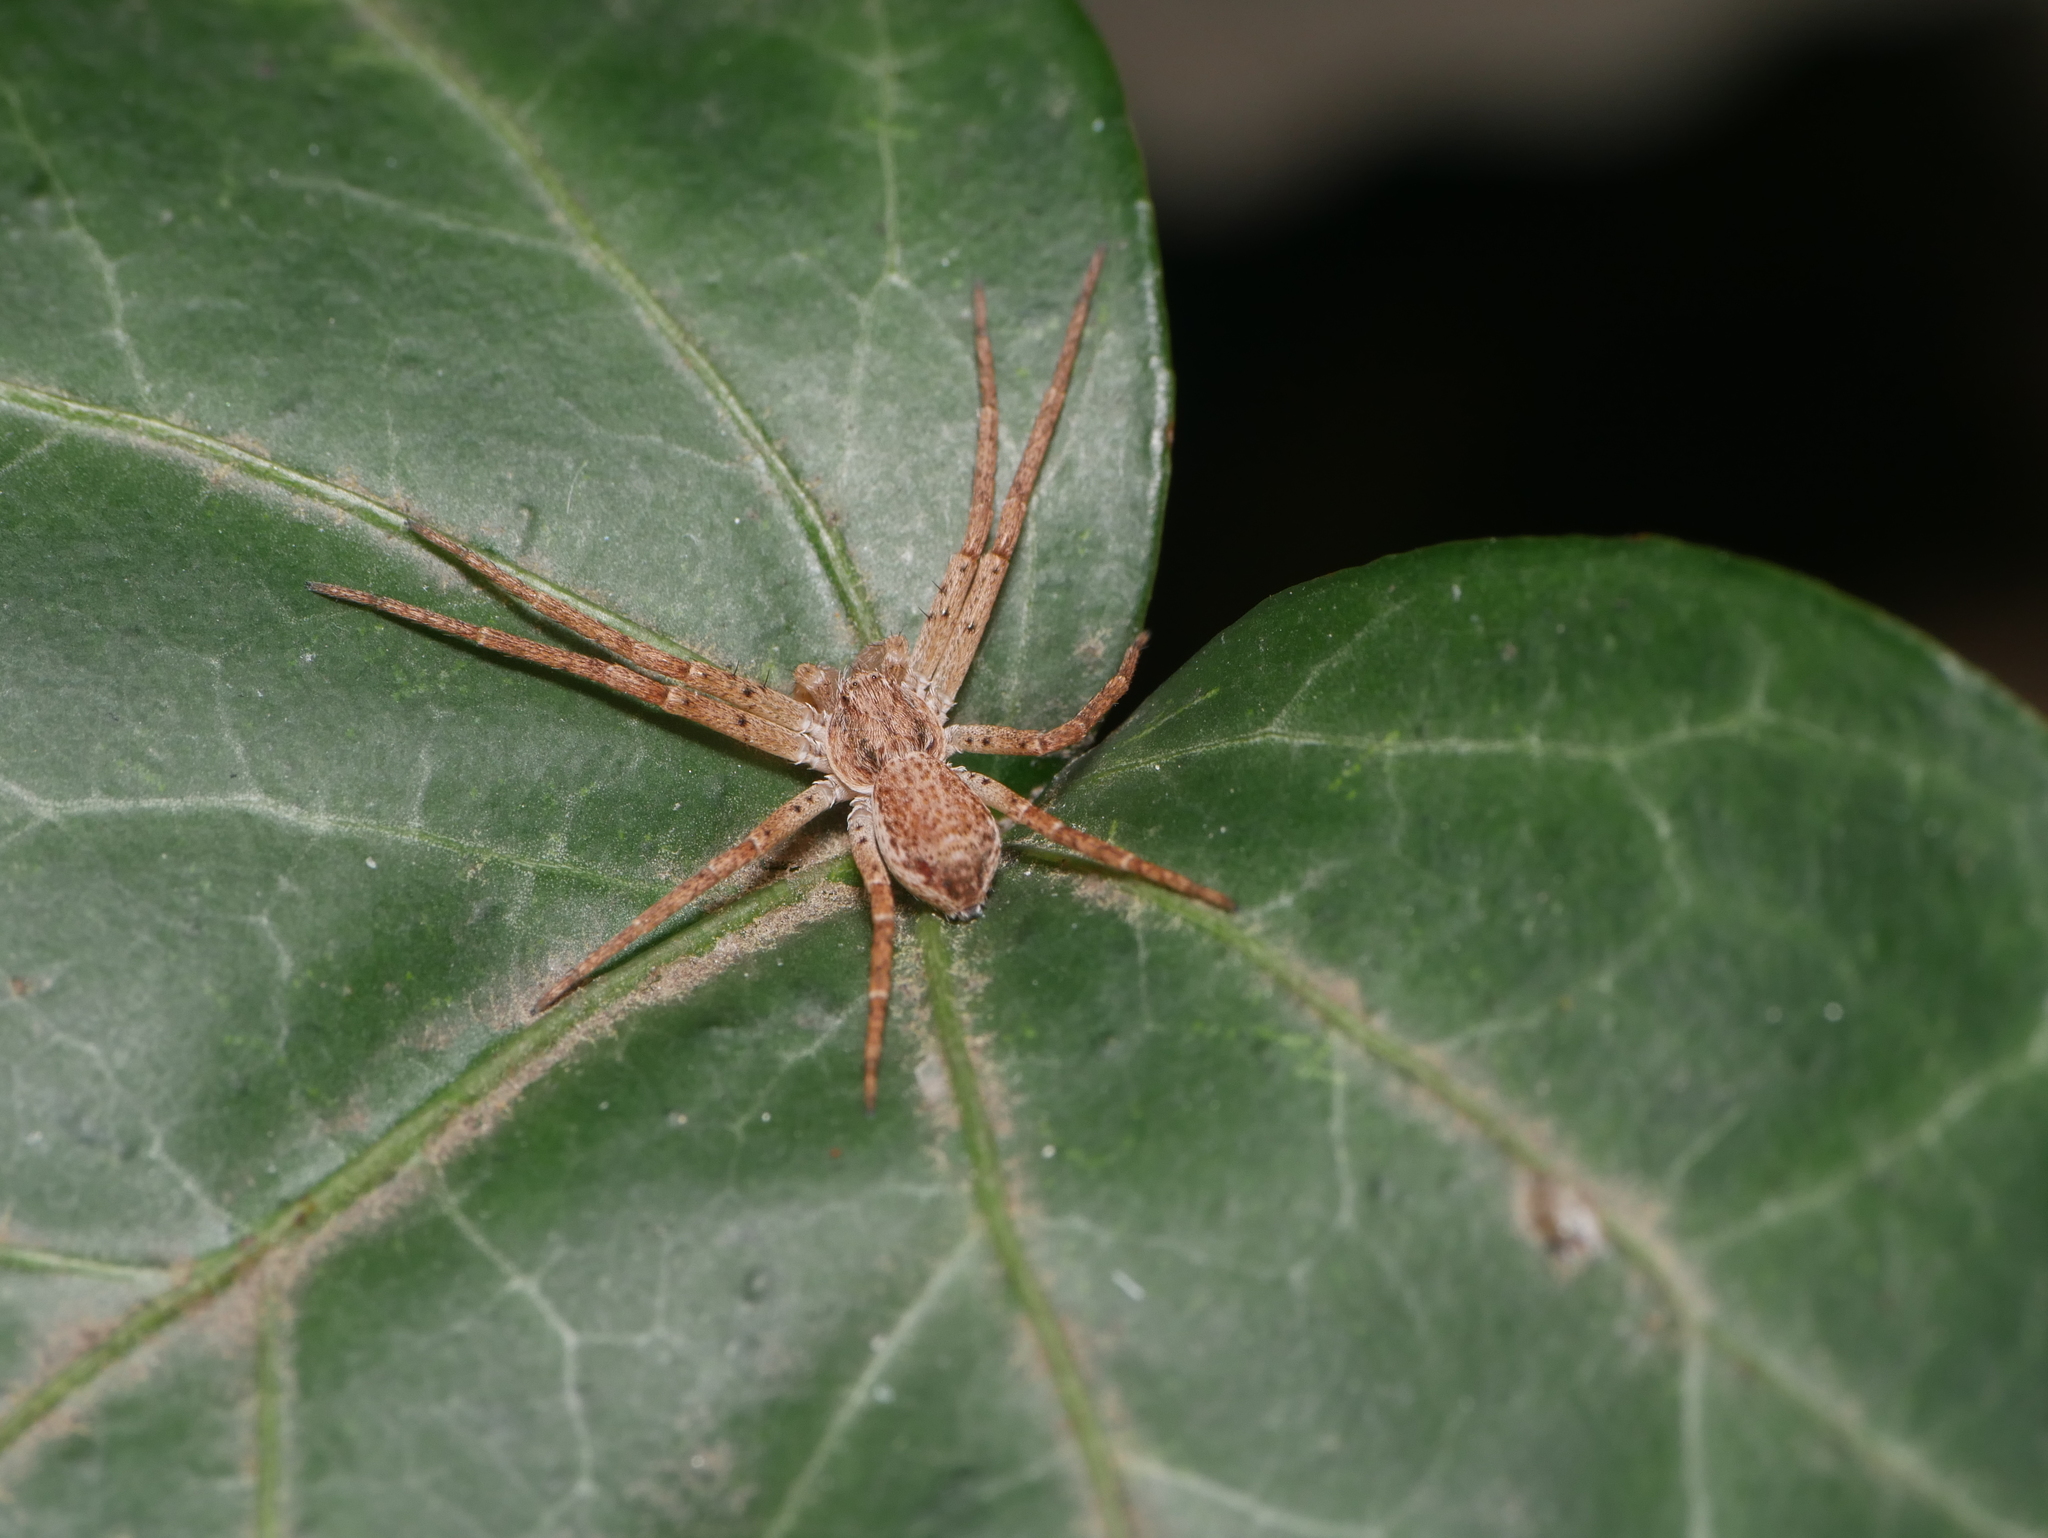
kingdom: Animalia
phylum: Arthropoda
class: Arachnida
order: Araneae
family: Philodromidae
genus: Philodromus
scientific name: Philodromus dispar
